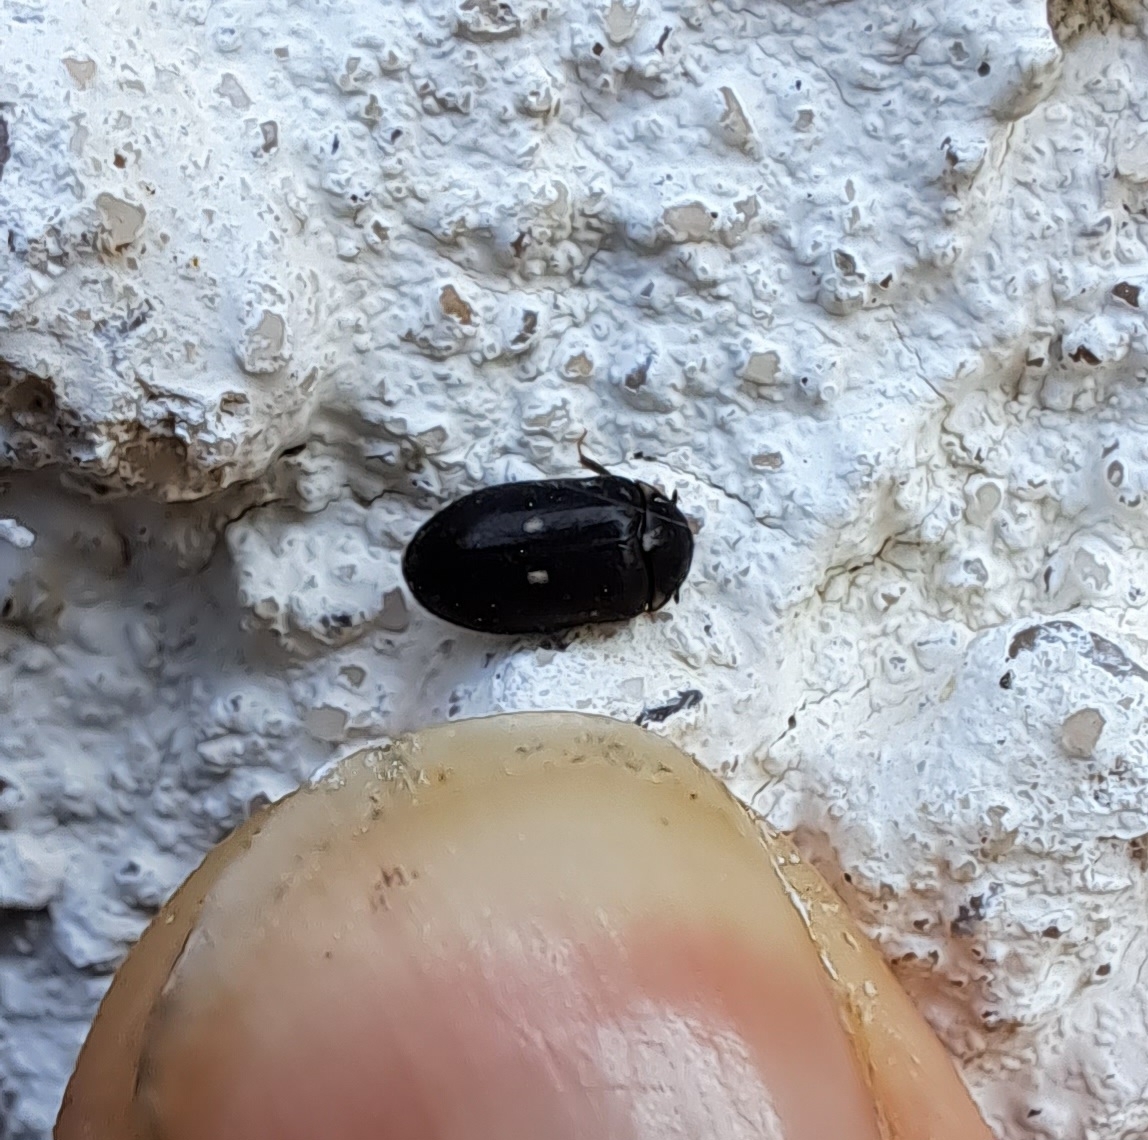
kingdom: Animalia
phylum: Arthropoda
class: Insecta
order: Coleoptera
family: Dermestidae
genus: Attagenus
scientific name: Attagenus pellio
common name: Two-spotted carpet beetle
